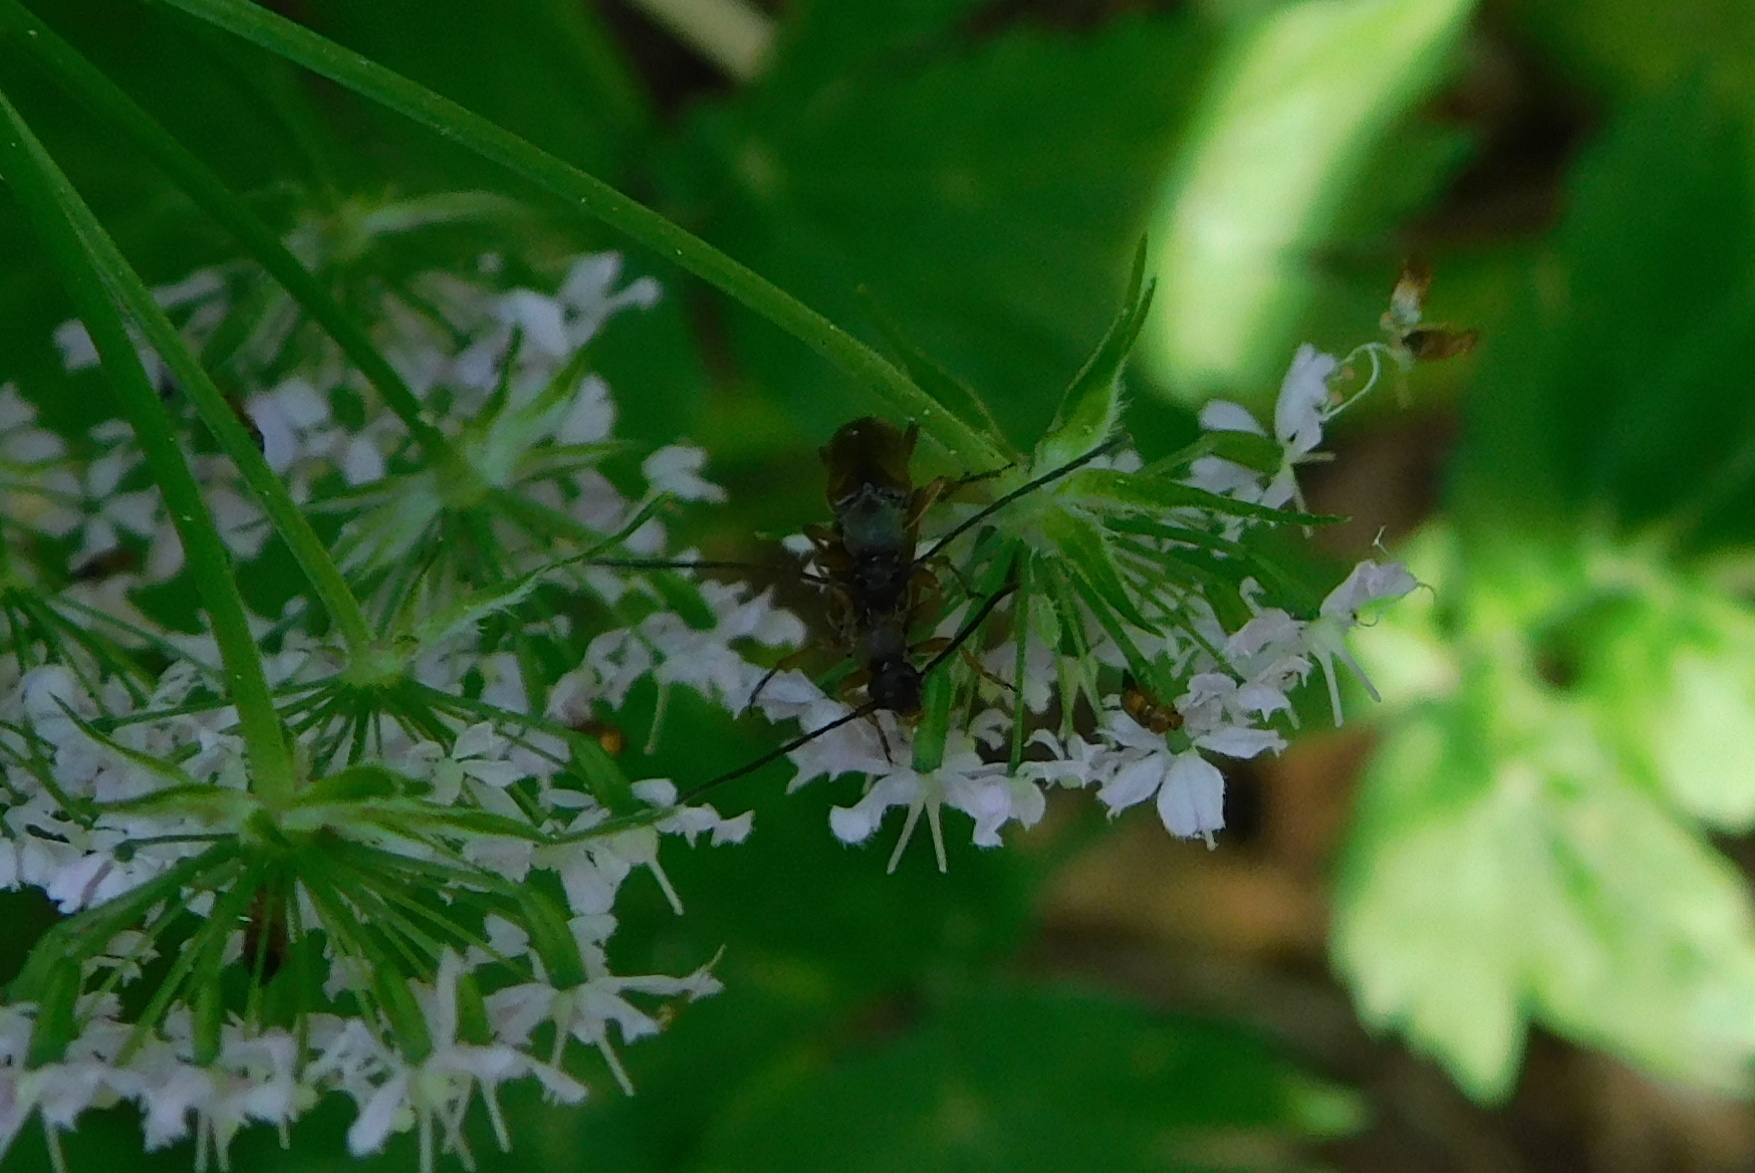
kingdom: Animalia
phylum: Arthropoda
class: Insecta
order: Coleoptera
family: Cerambycidae
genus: Alosterna
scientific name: Alosterna tabacicolor
